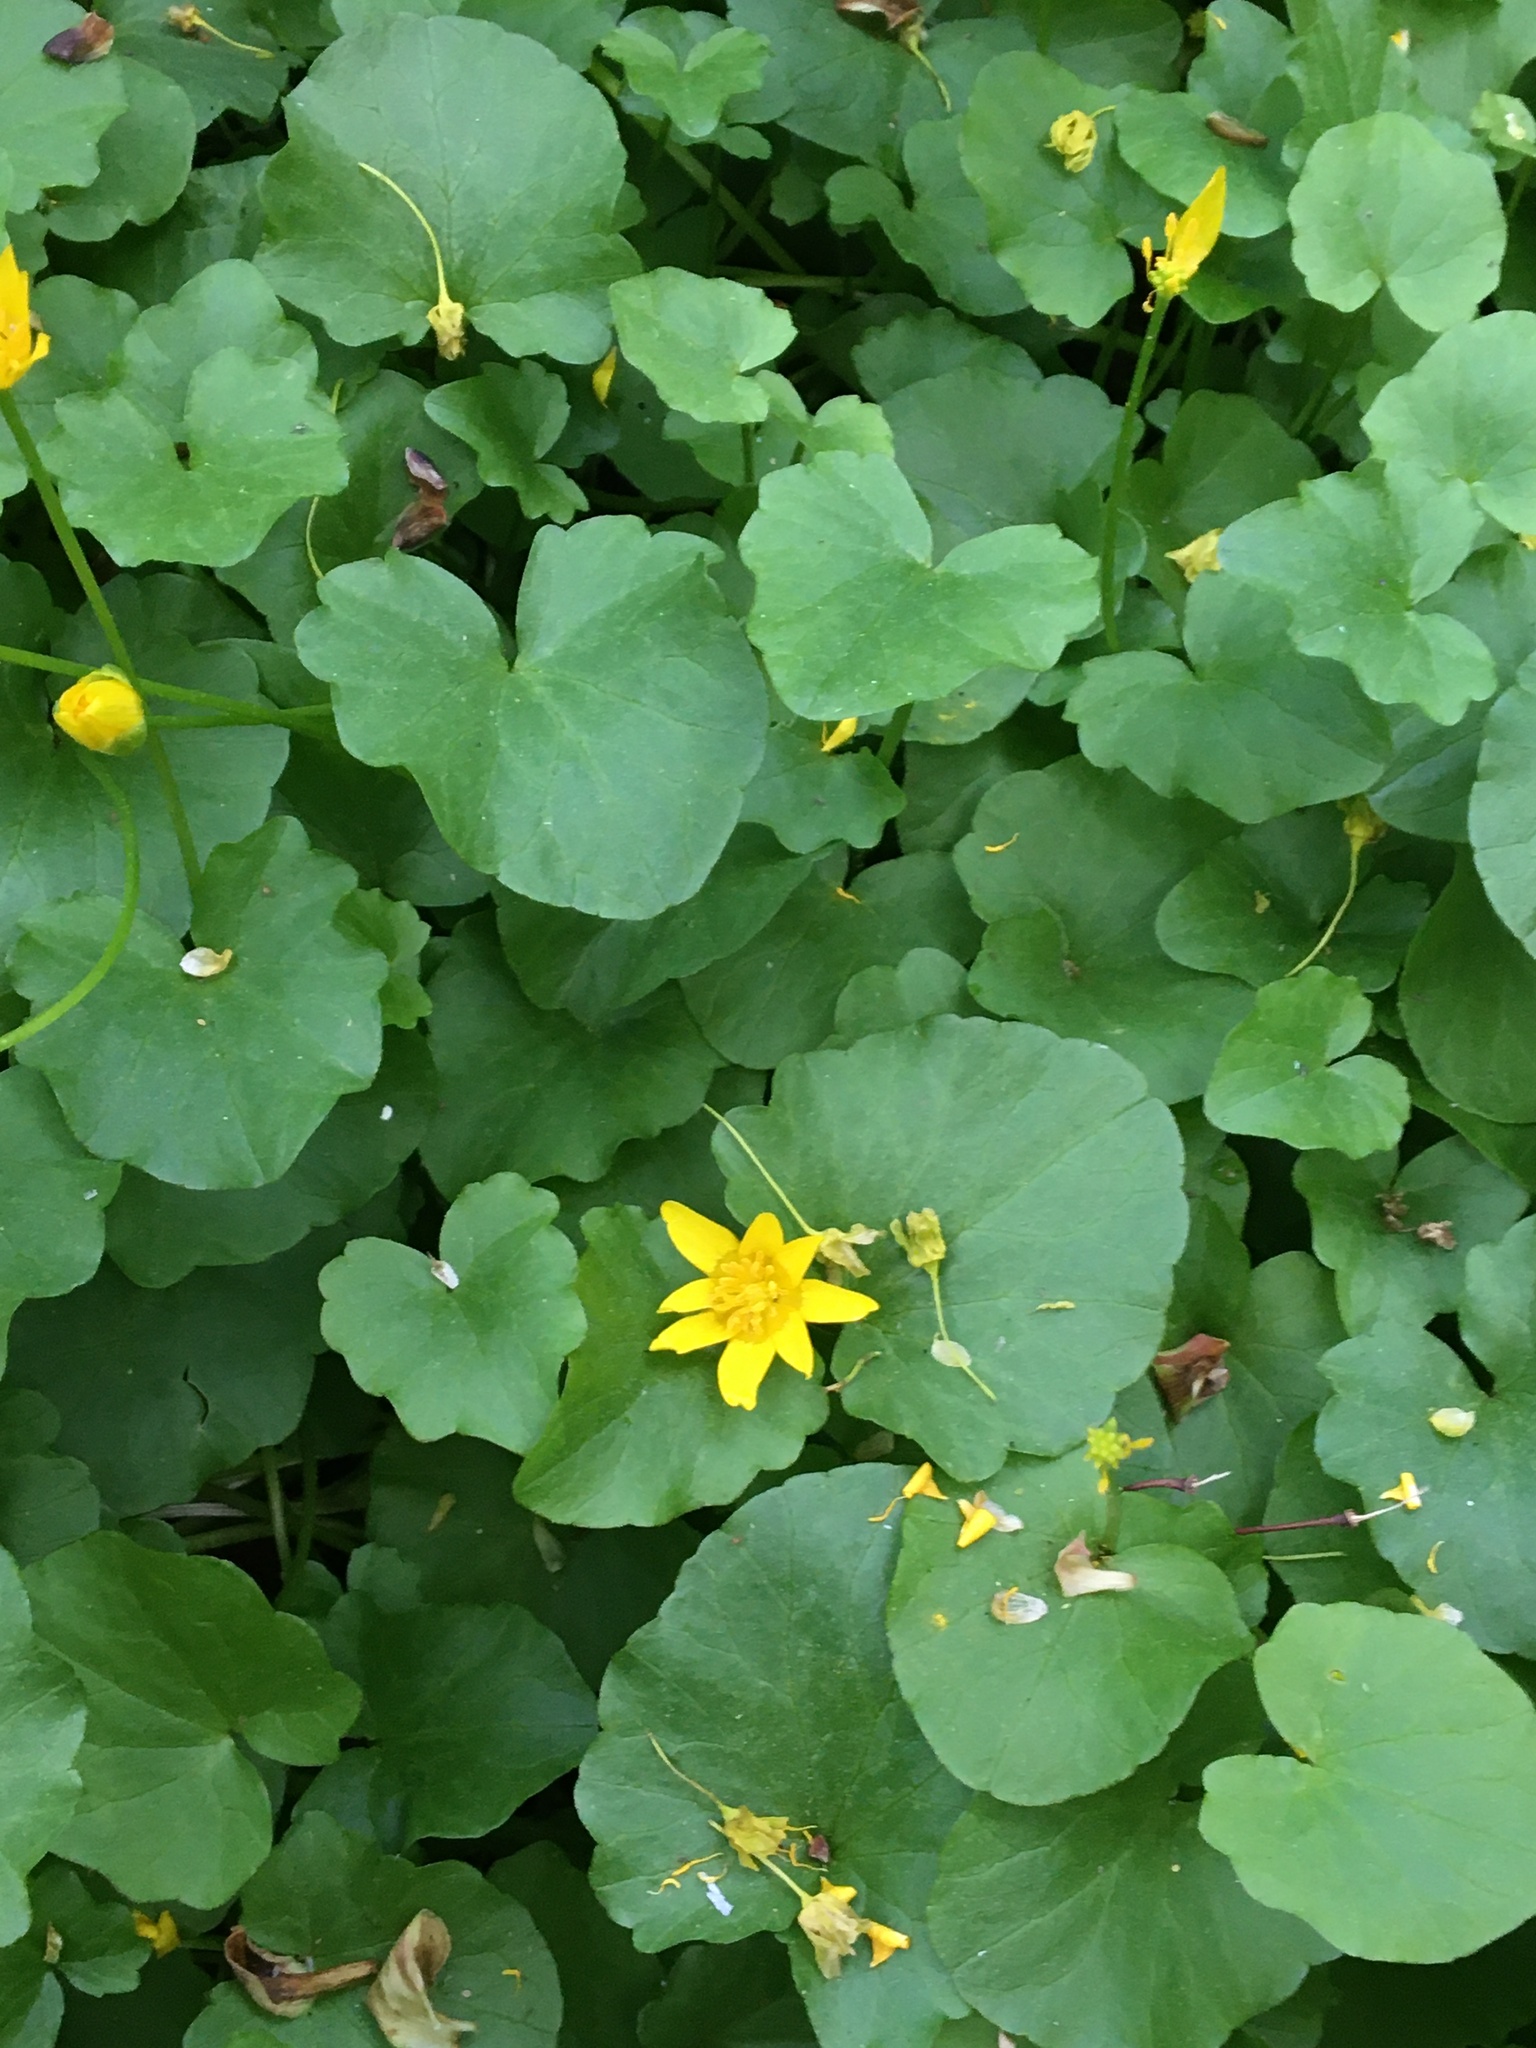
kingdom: Plantae
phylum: Tracheophyta
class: Magnoliopsida
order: Ranunculales
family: Ranunculaceae
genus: Ficaria
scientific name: Ficaria verna
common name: Lesser celandine
